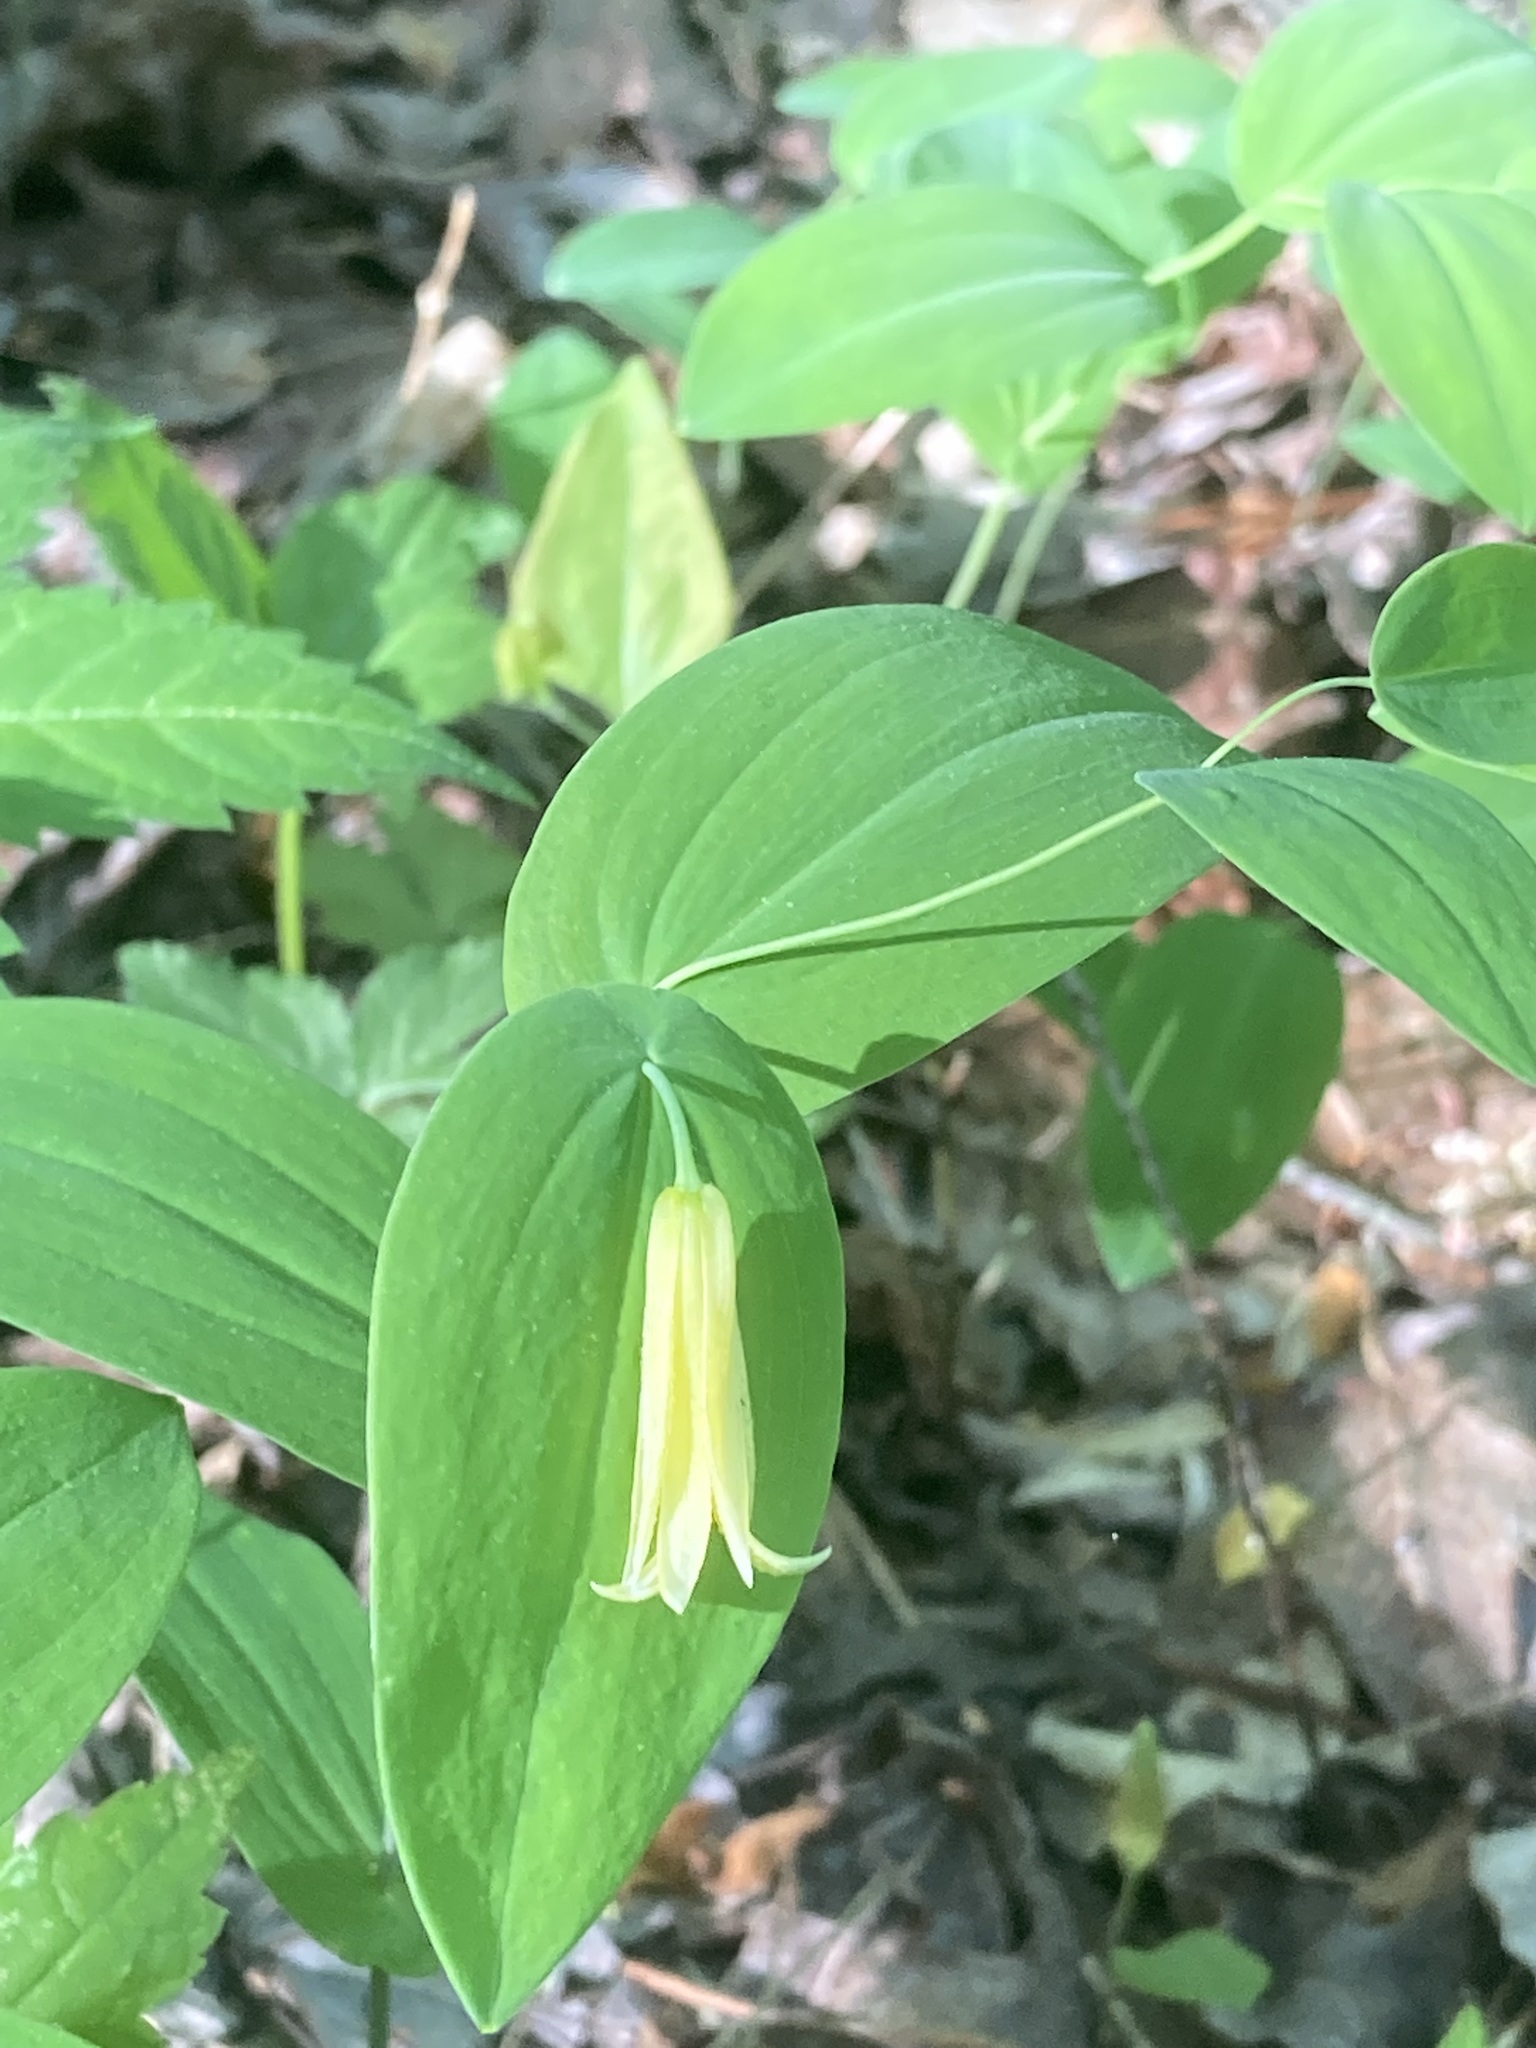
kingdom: Plantae
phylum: Tracheophyta
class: Liliopsida
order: Liliales
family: Colchicaceae
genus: Uvularia
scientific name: Uvularia perfoliata
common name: Perfoliate bellwort
